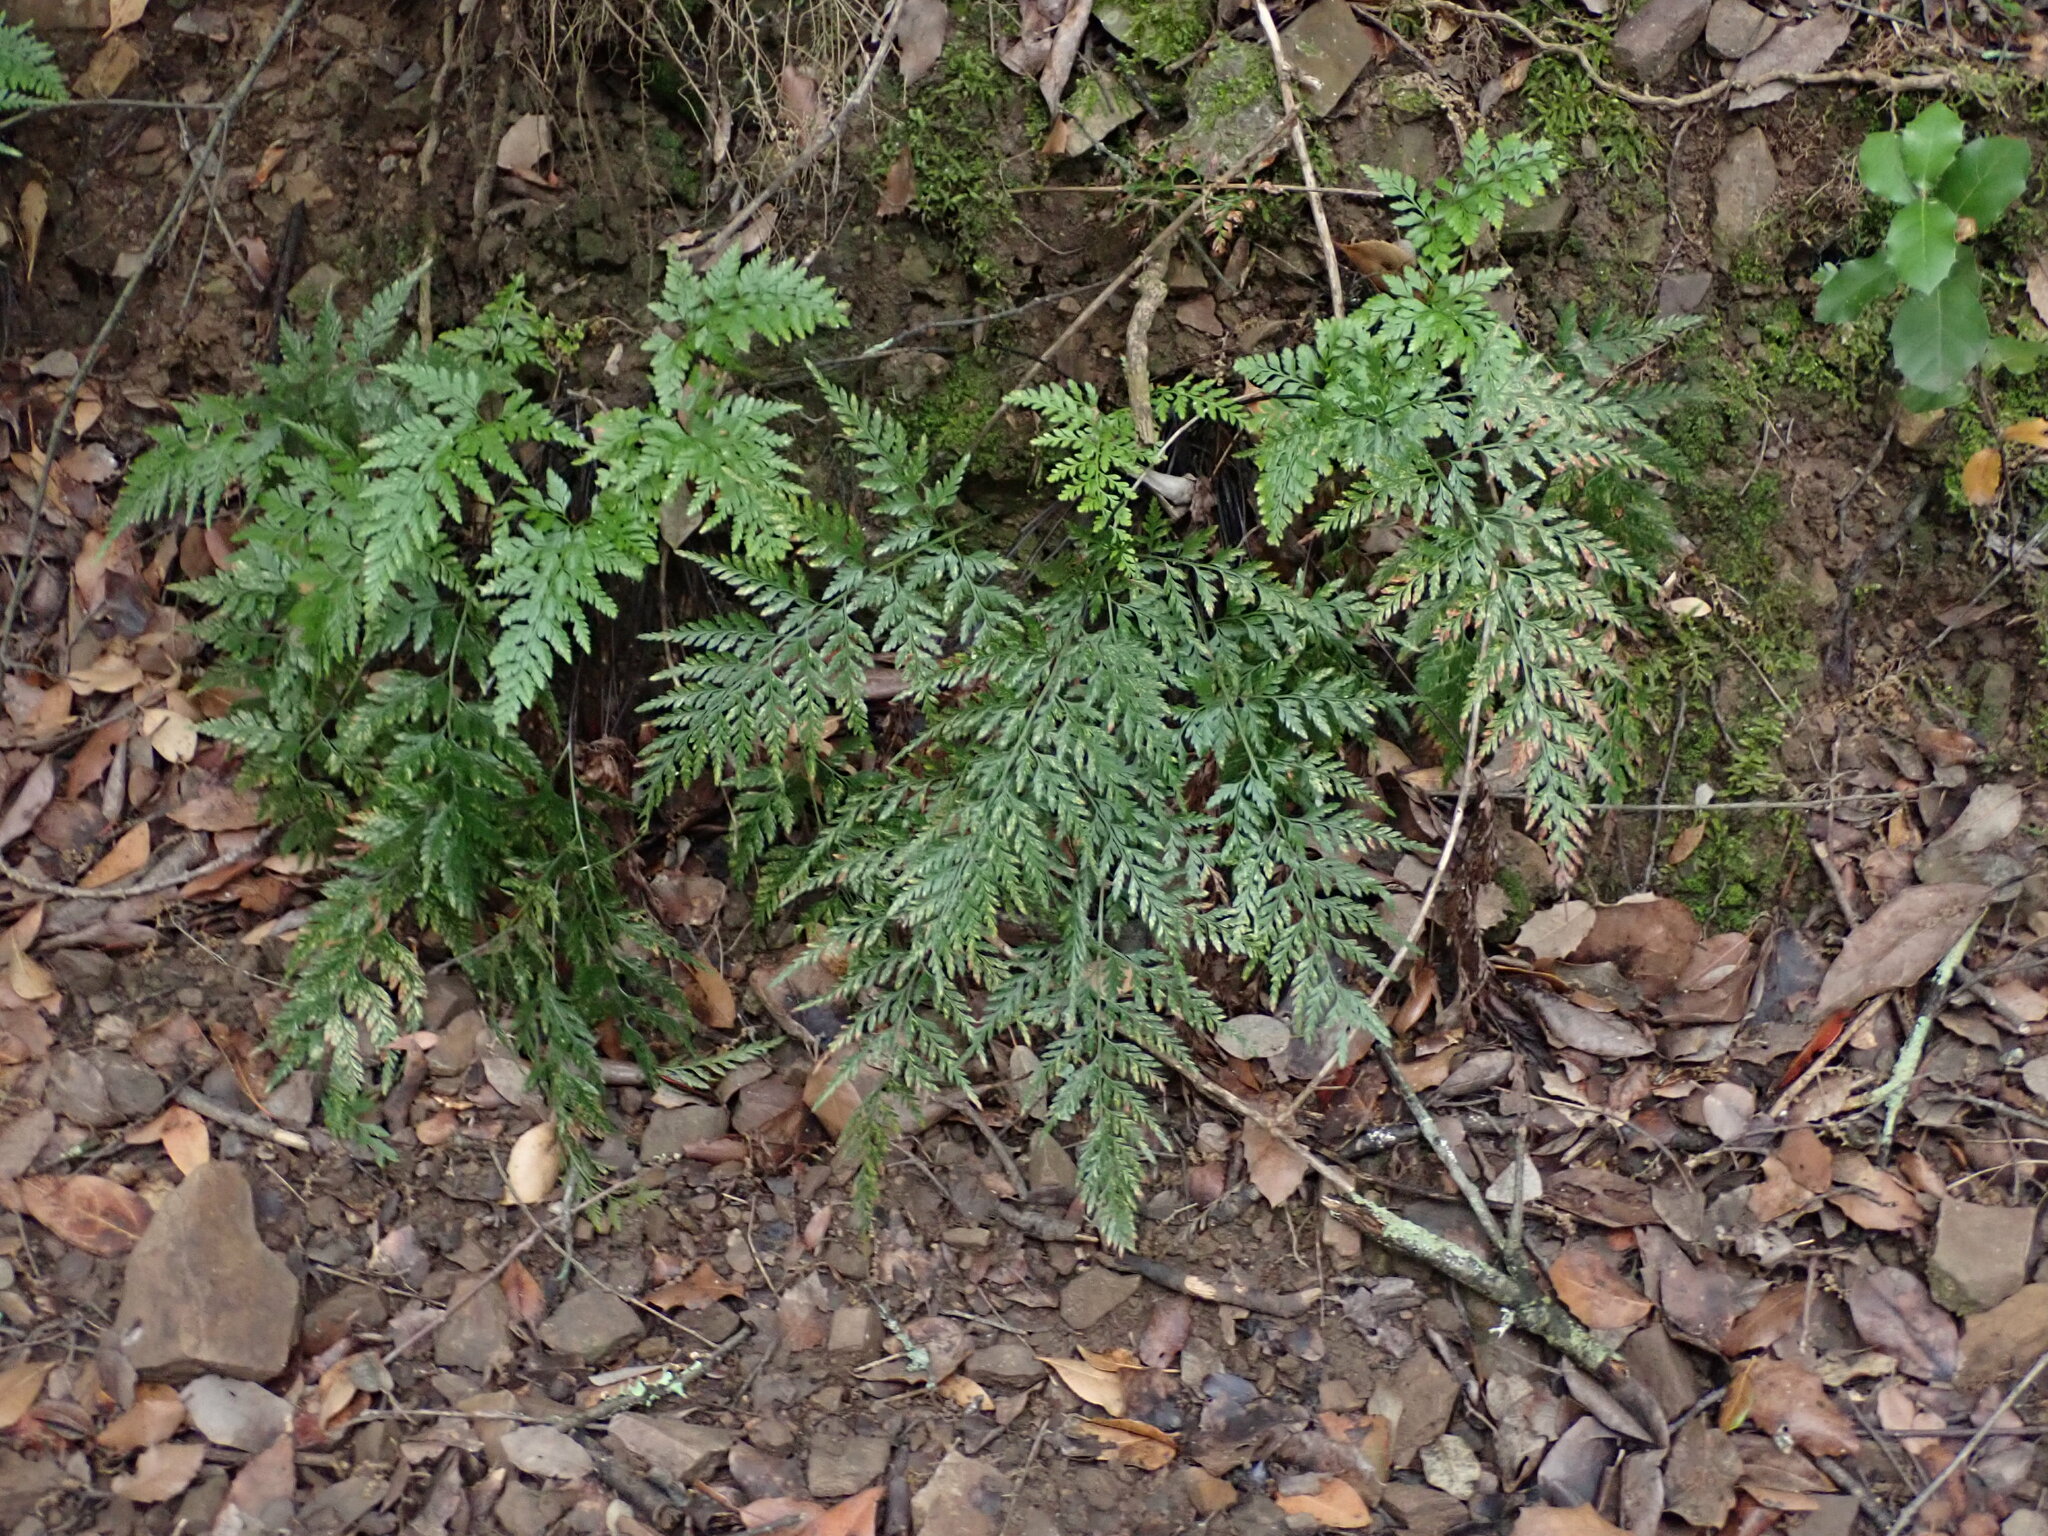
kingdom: Plantae
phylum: Tracheophyta
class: Polypodiopsida
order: Polypodiales
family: Aspleniaceae
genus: Asplenium
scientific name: Asplenium onopteris
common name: Irish spleenwort
